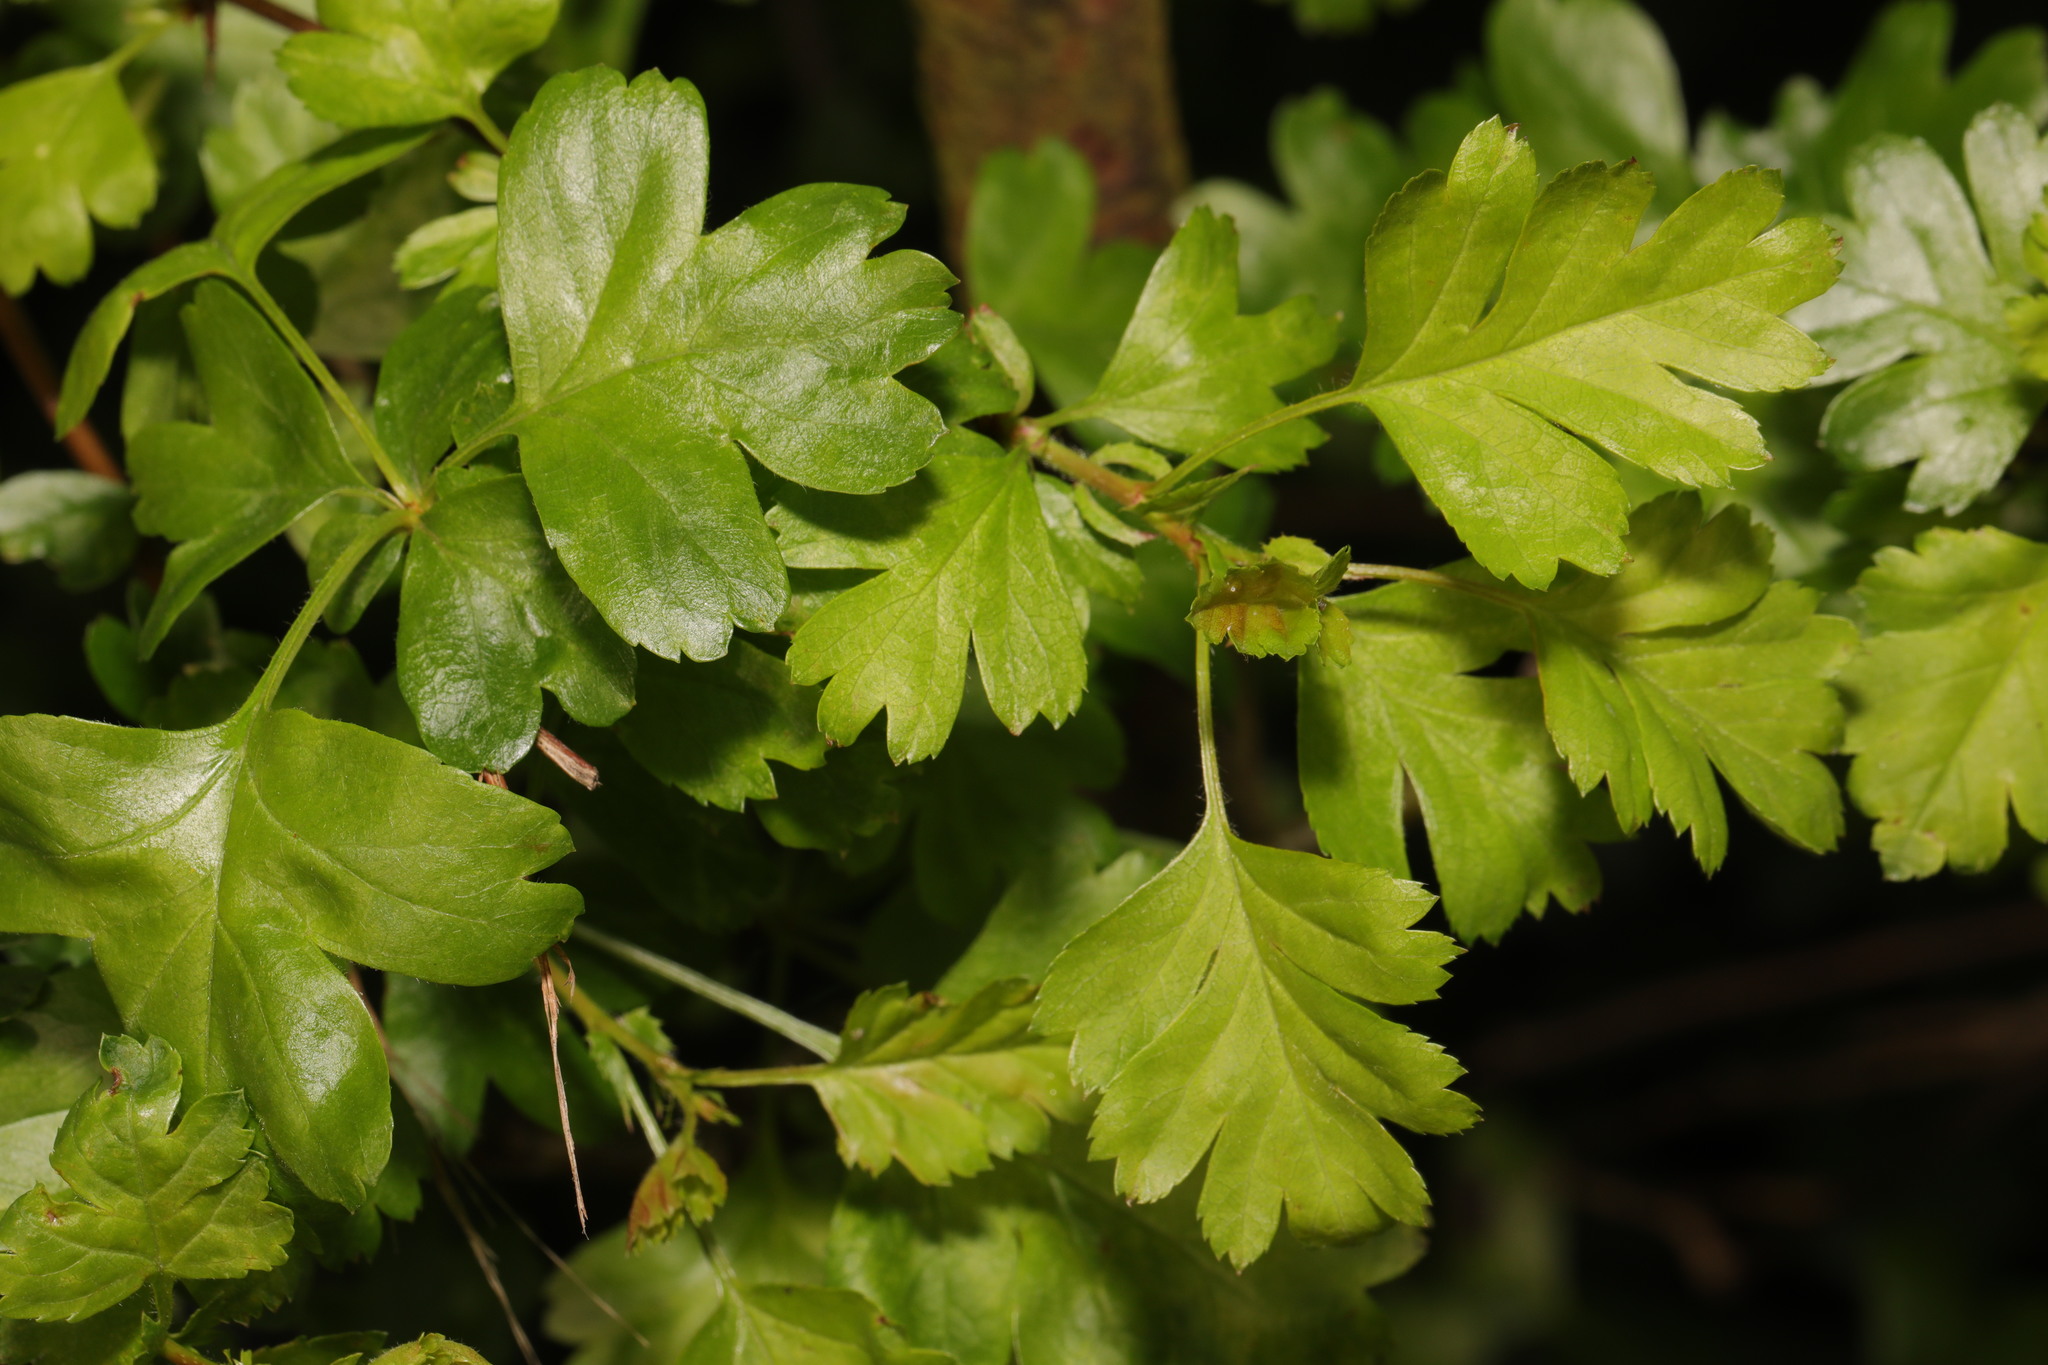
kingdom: Plantae
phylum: Tracheophyta
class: Magnoliopsida
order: Rosales
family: Rosaceae
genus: Crataegus
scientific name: Crataegus monogyna
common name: Hawthorn
